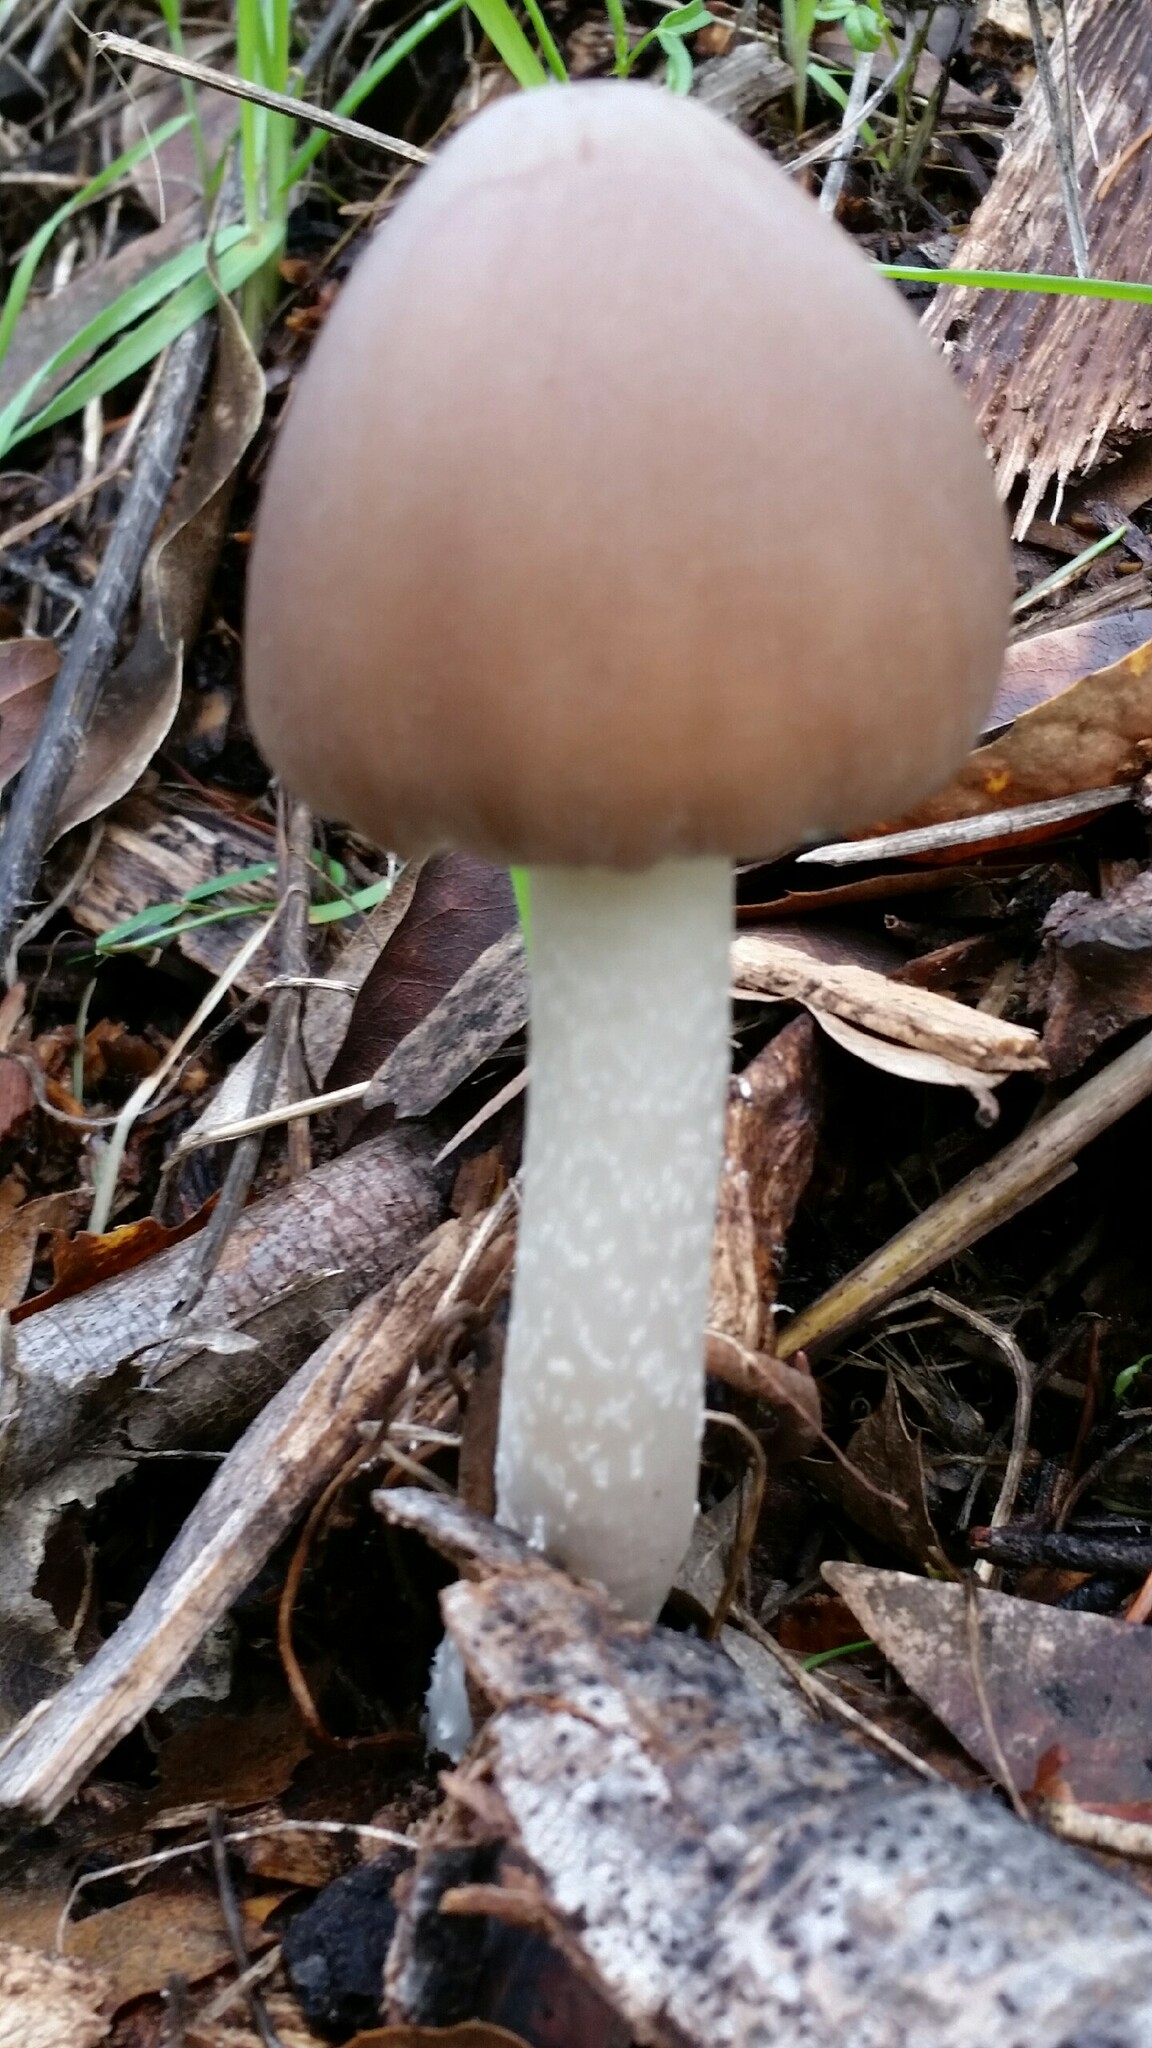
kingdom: Fungi
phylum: Basidiomycota
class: Agaricomycetes
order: Agaricales
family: Psathyrellaceae
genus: Psathyrella
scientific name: Psathyrella longipes
